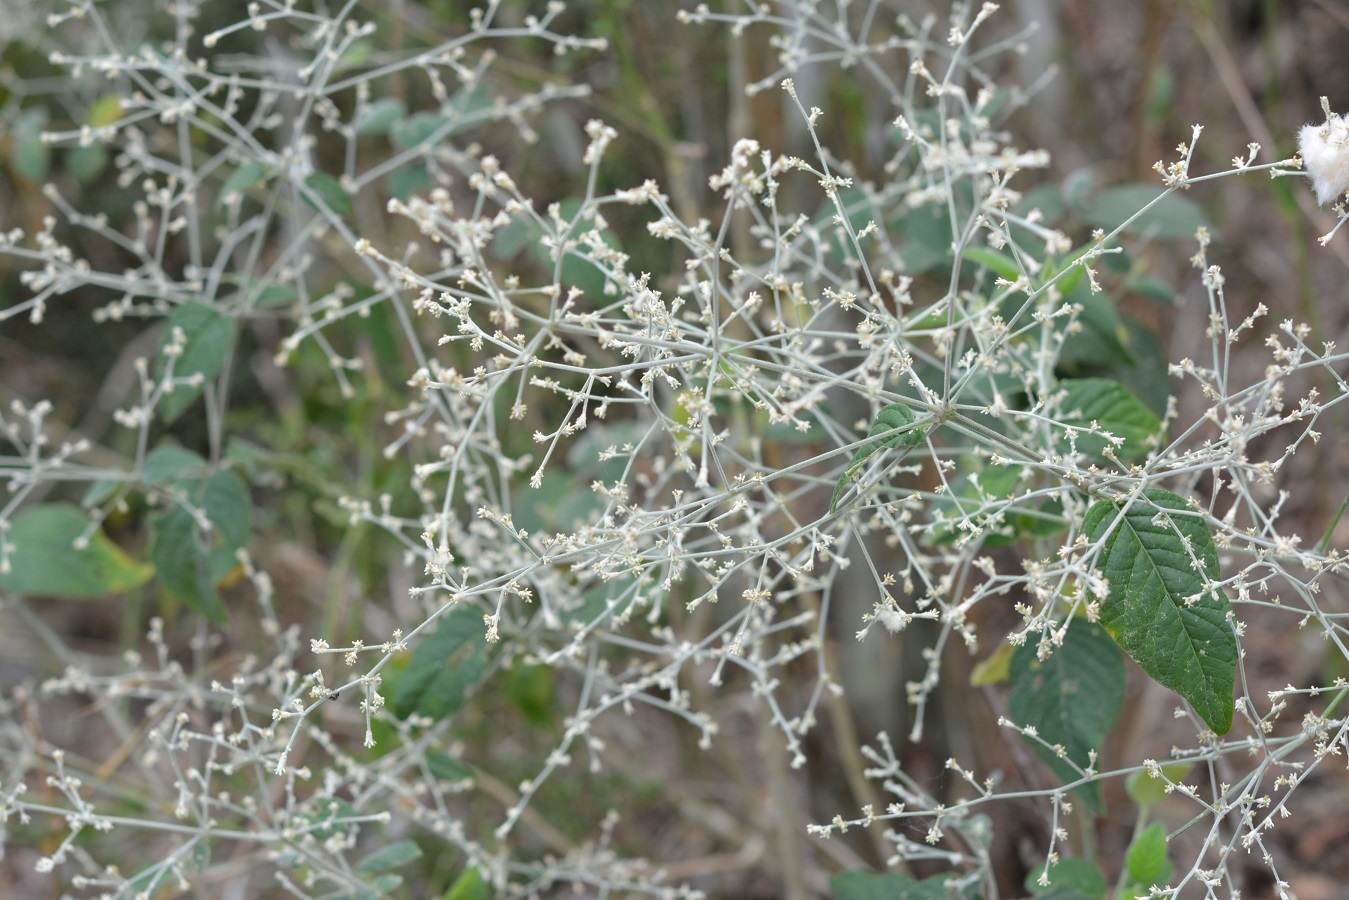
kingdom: Plantae
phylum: Tracheophyta
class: Magnoliopsida
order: Caryophyllales
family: Amaranthaceae
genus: Iresine
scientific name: Iresine latifolia
